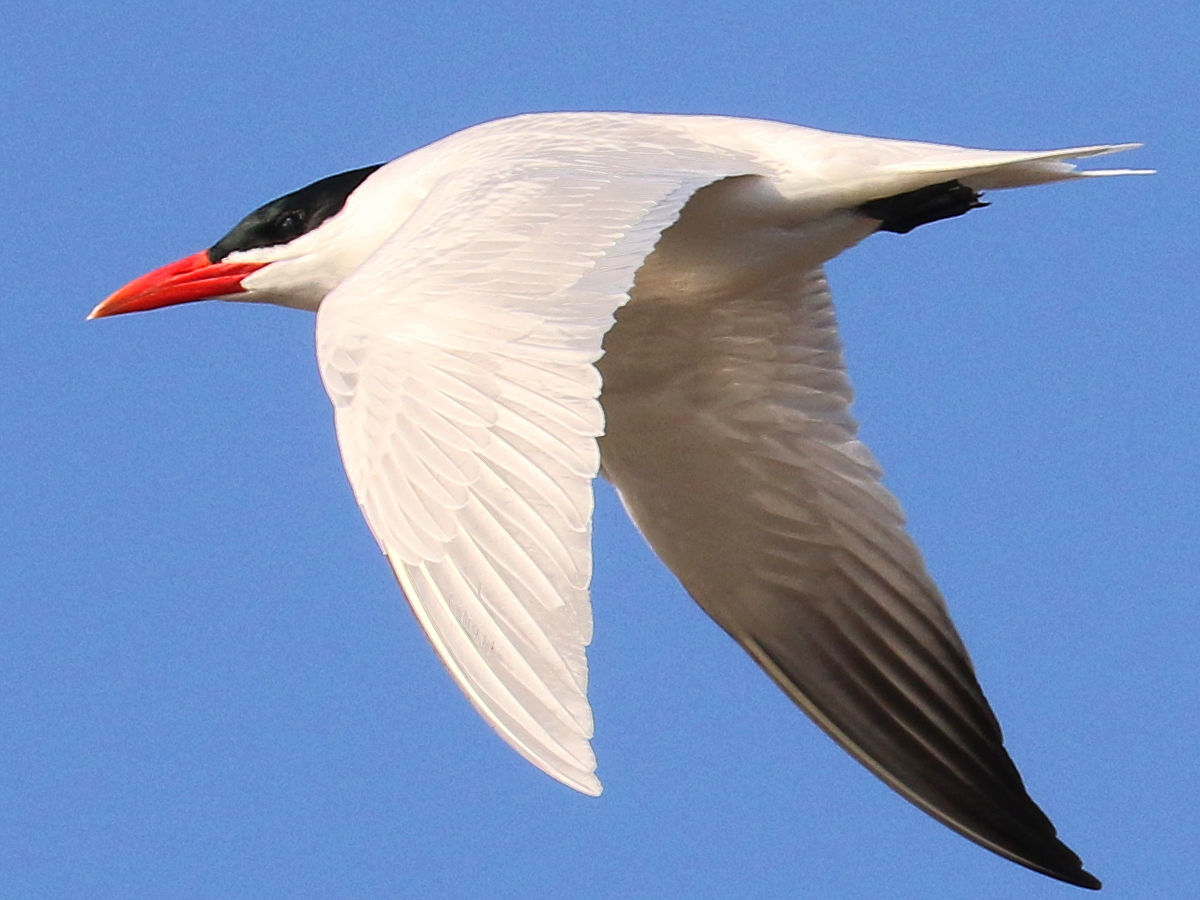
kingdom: Animalia
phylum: Chordata
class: Aves
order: Charadriiformes
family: Laridae
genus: Hydroprogne
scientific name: Hydroprogne caspia
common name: Caspian tern
